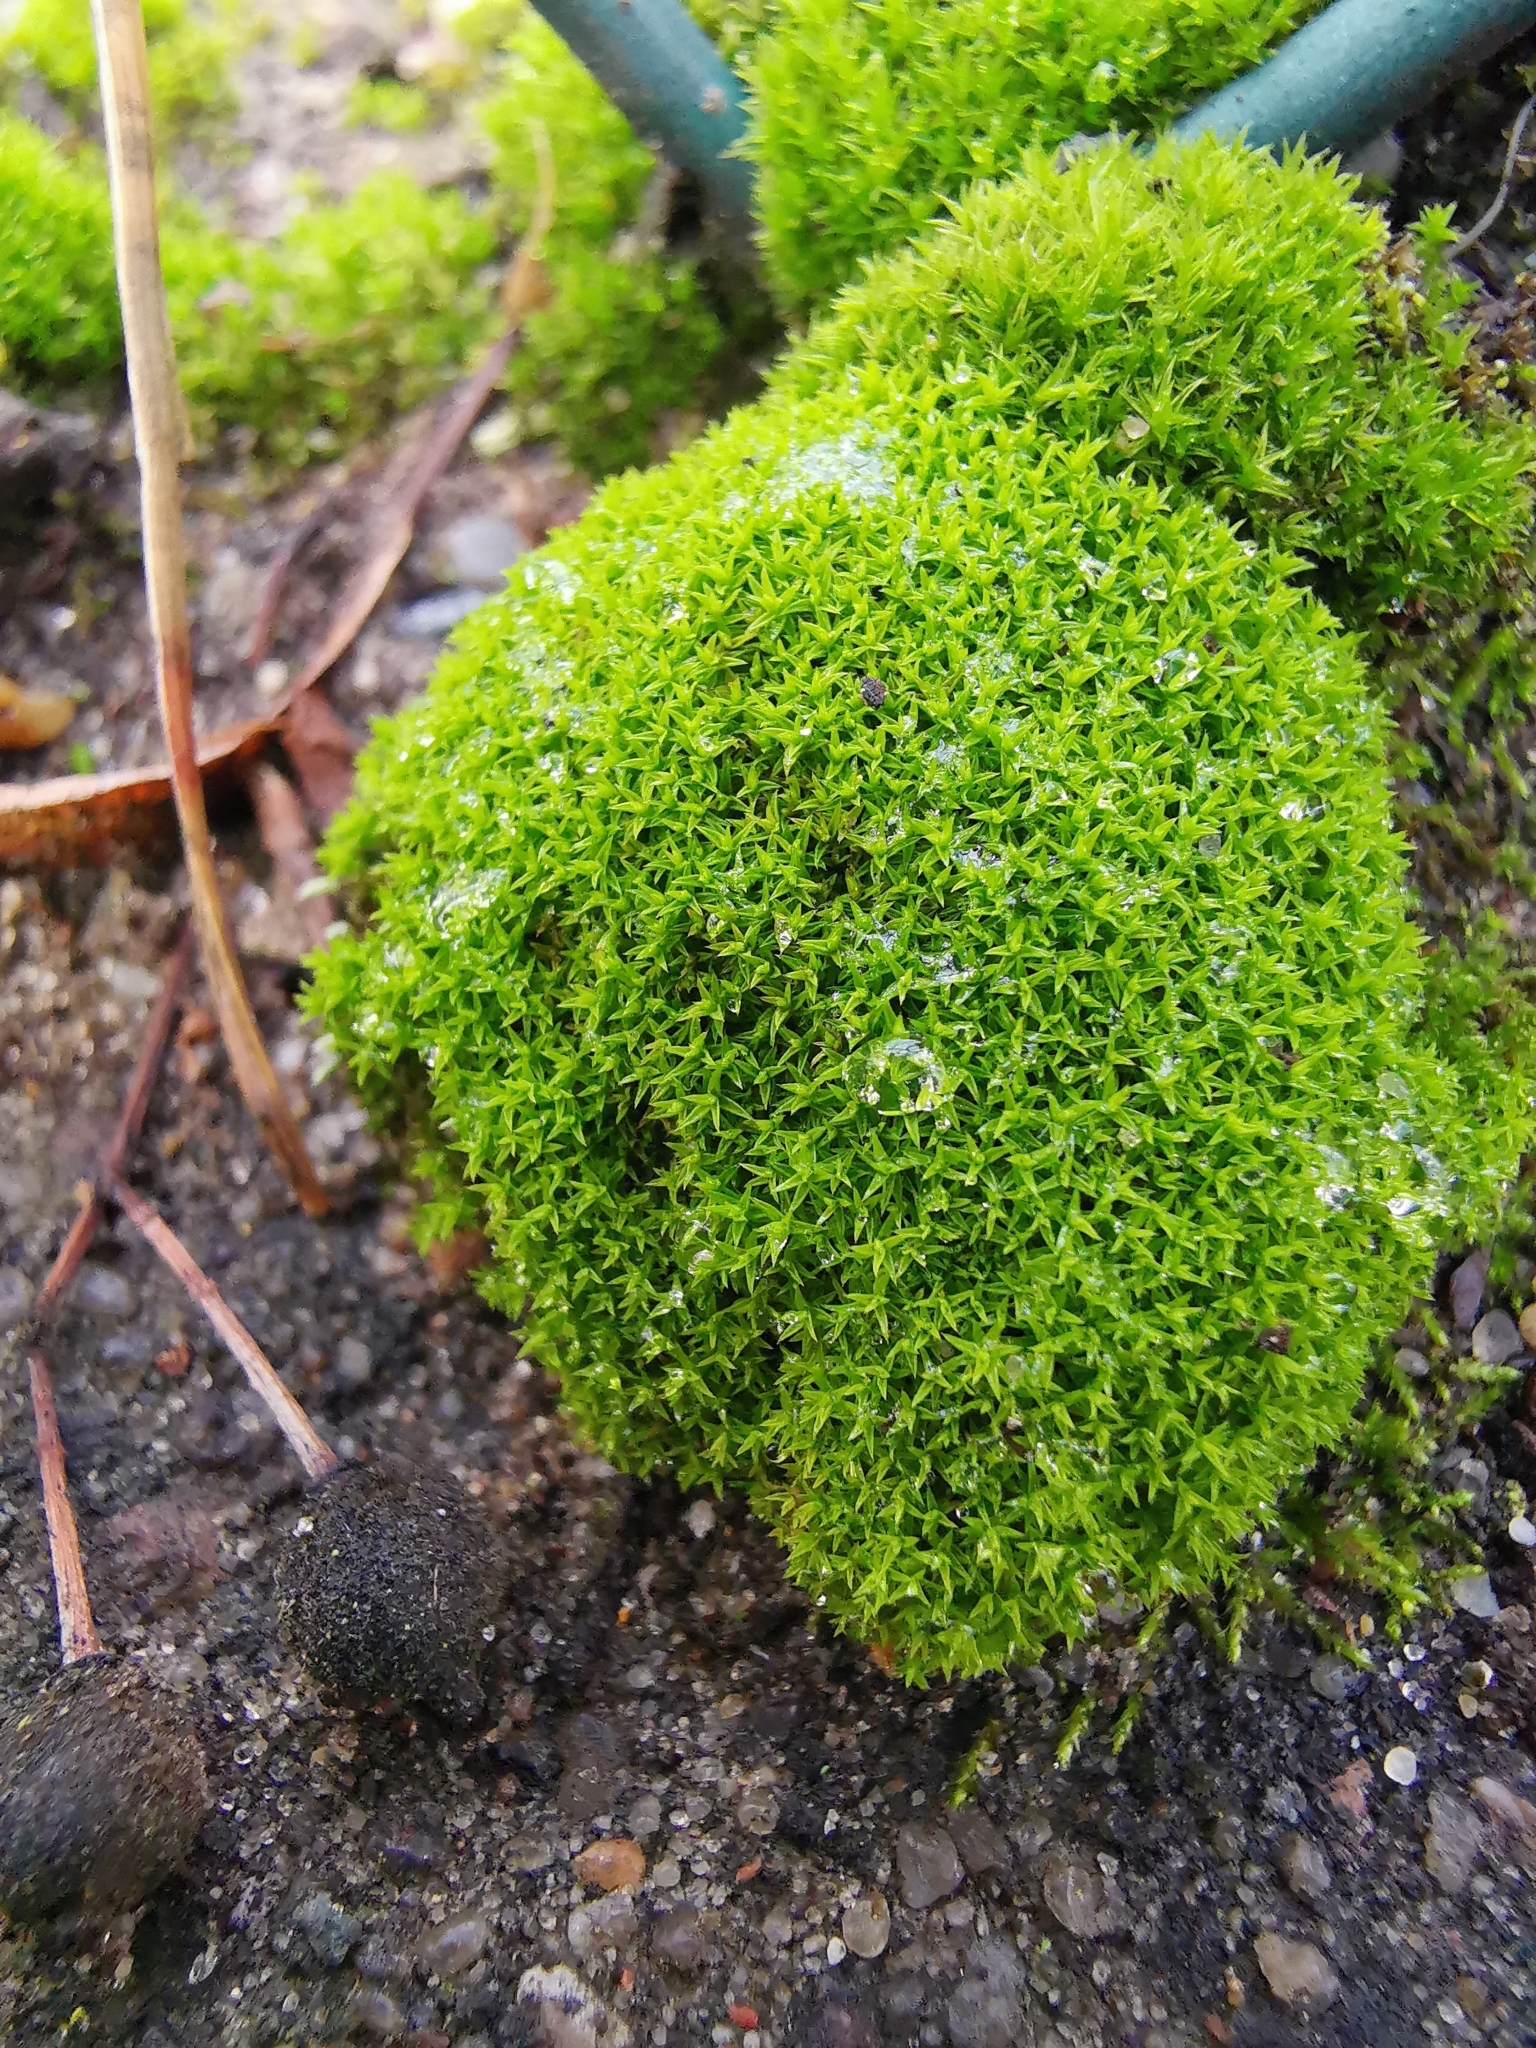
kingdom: Plantae
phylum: Bryophyta
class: Bryopsida
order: Pottiales
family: Pottiaceae
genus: Pseudocrossidium
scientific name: Pseudocrossidium hornschuchianum
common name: Hornschuch's beard-moss
